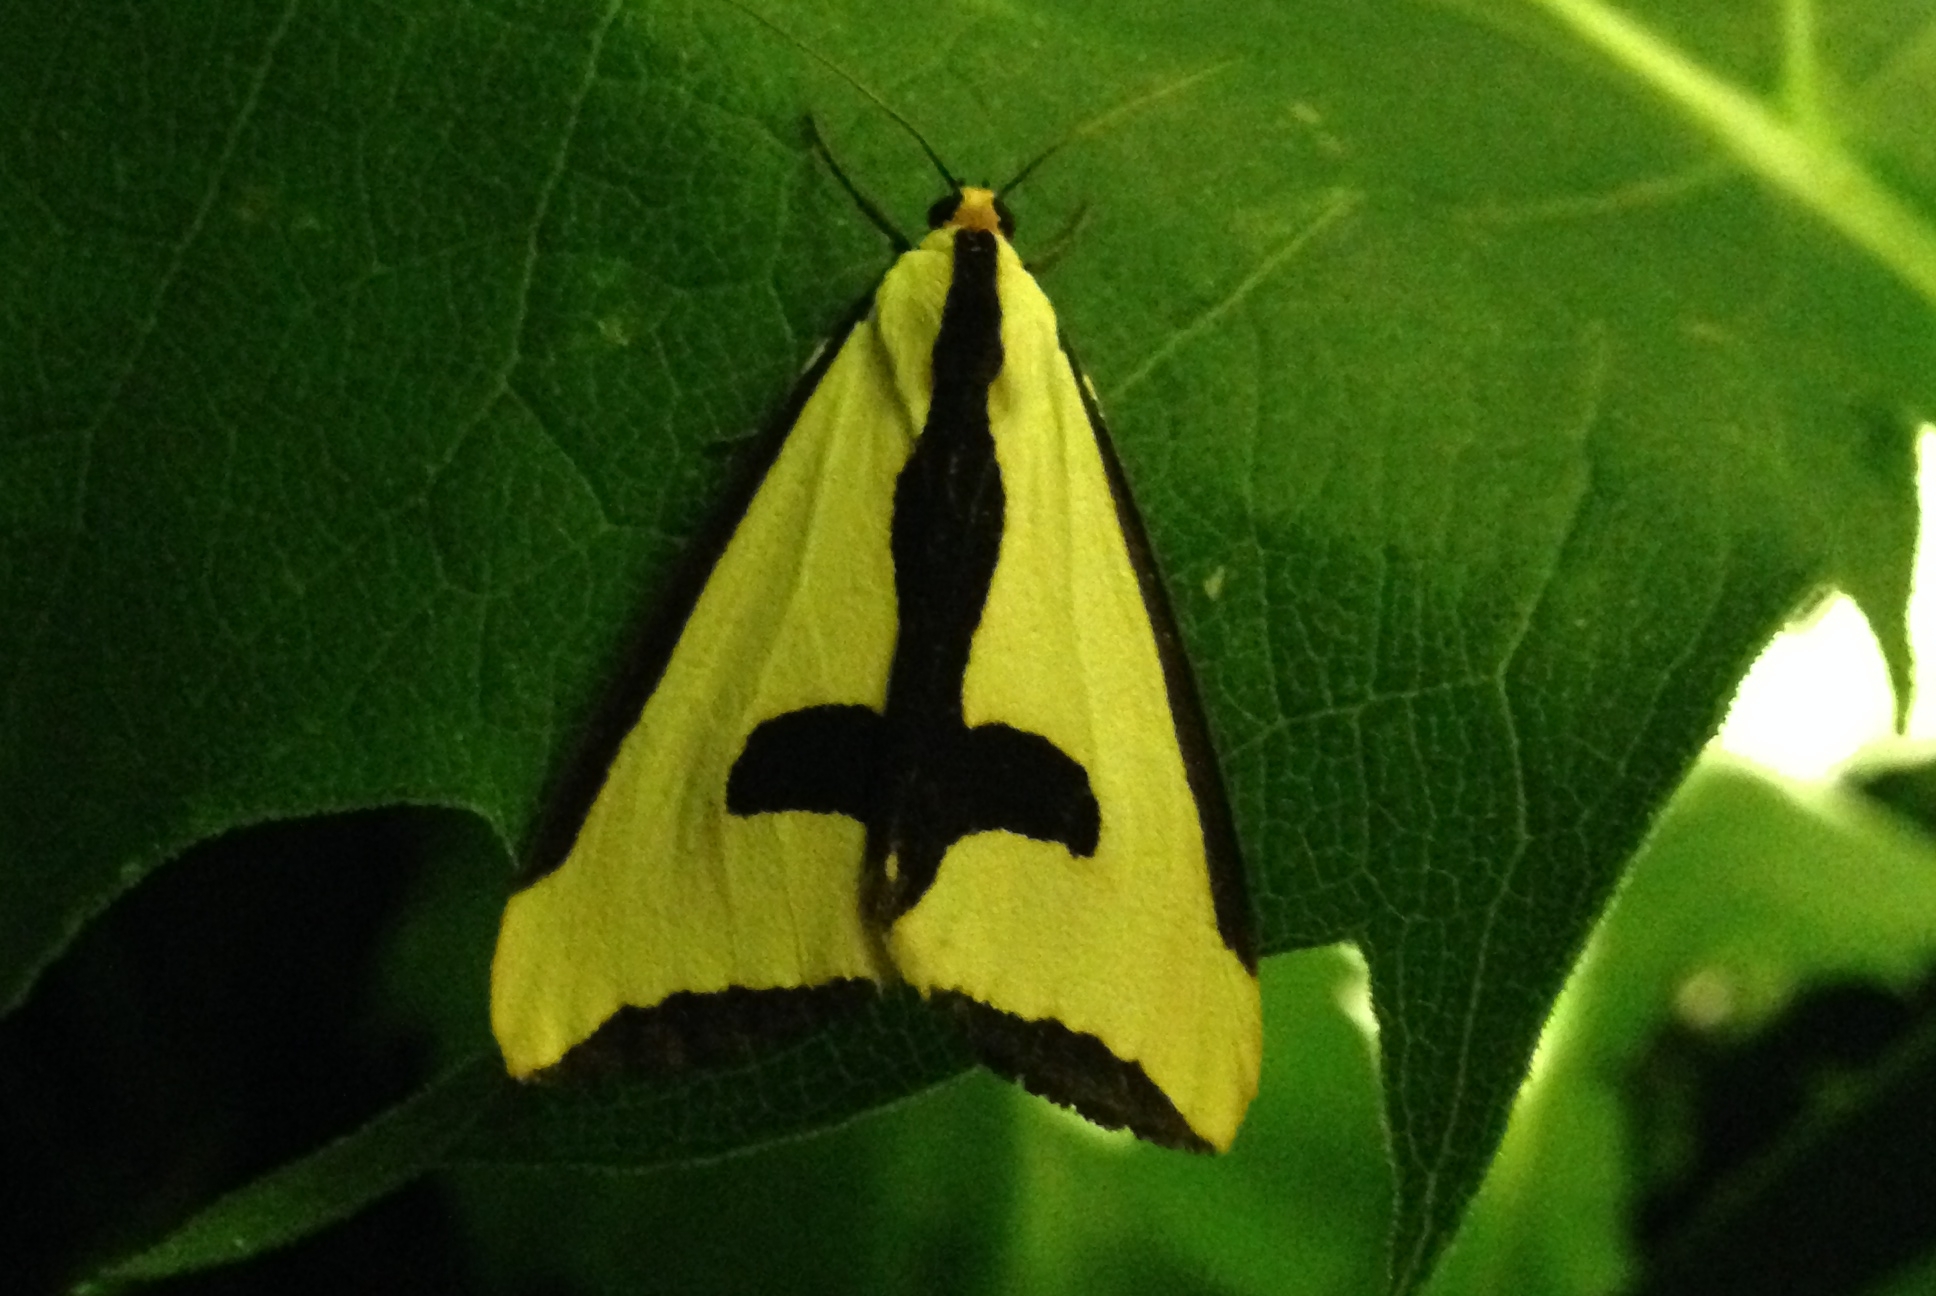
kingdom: Animalia
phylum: Arthropoda
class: Insecta
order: Lepidoptera
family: Erebidae
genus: Haploa
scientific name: Haploa clymene
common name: Clymene moth
